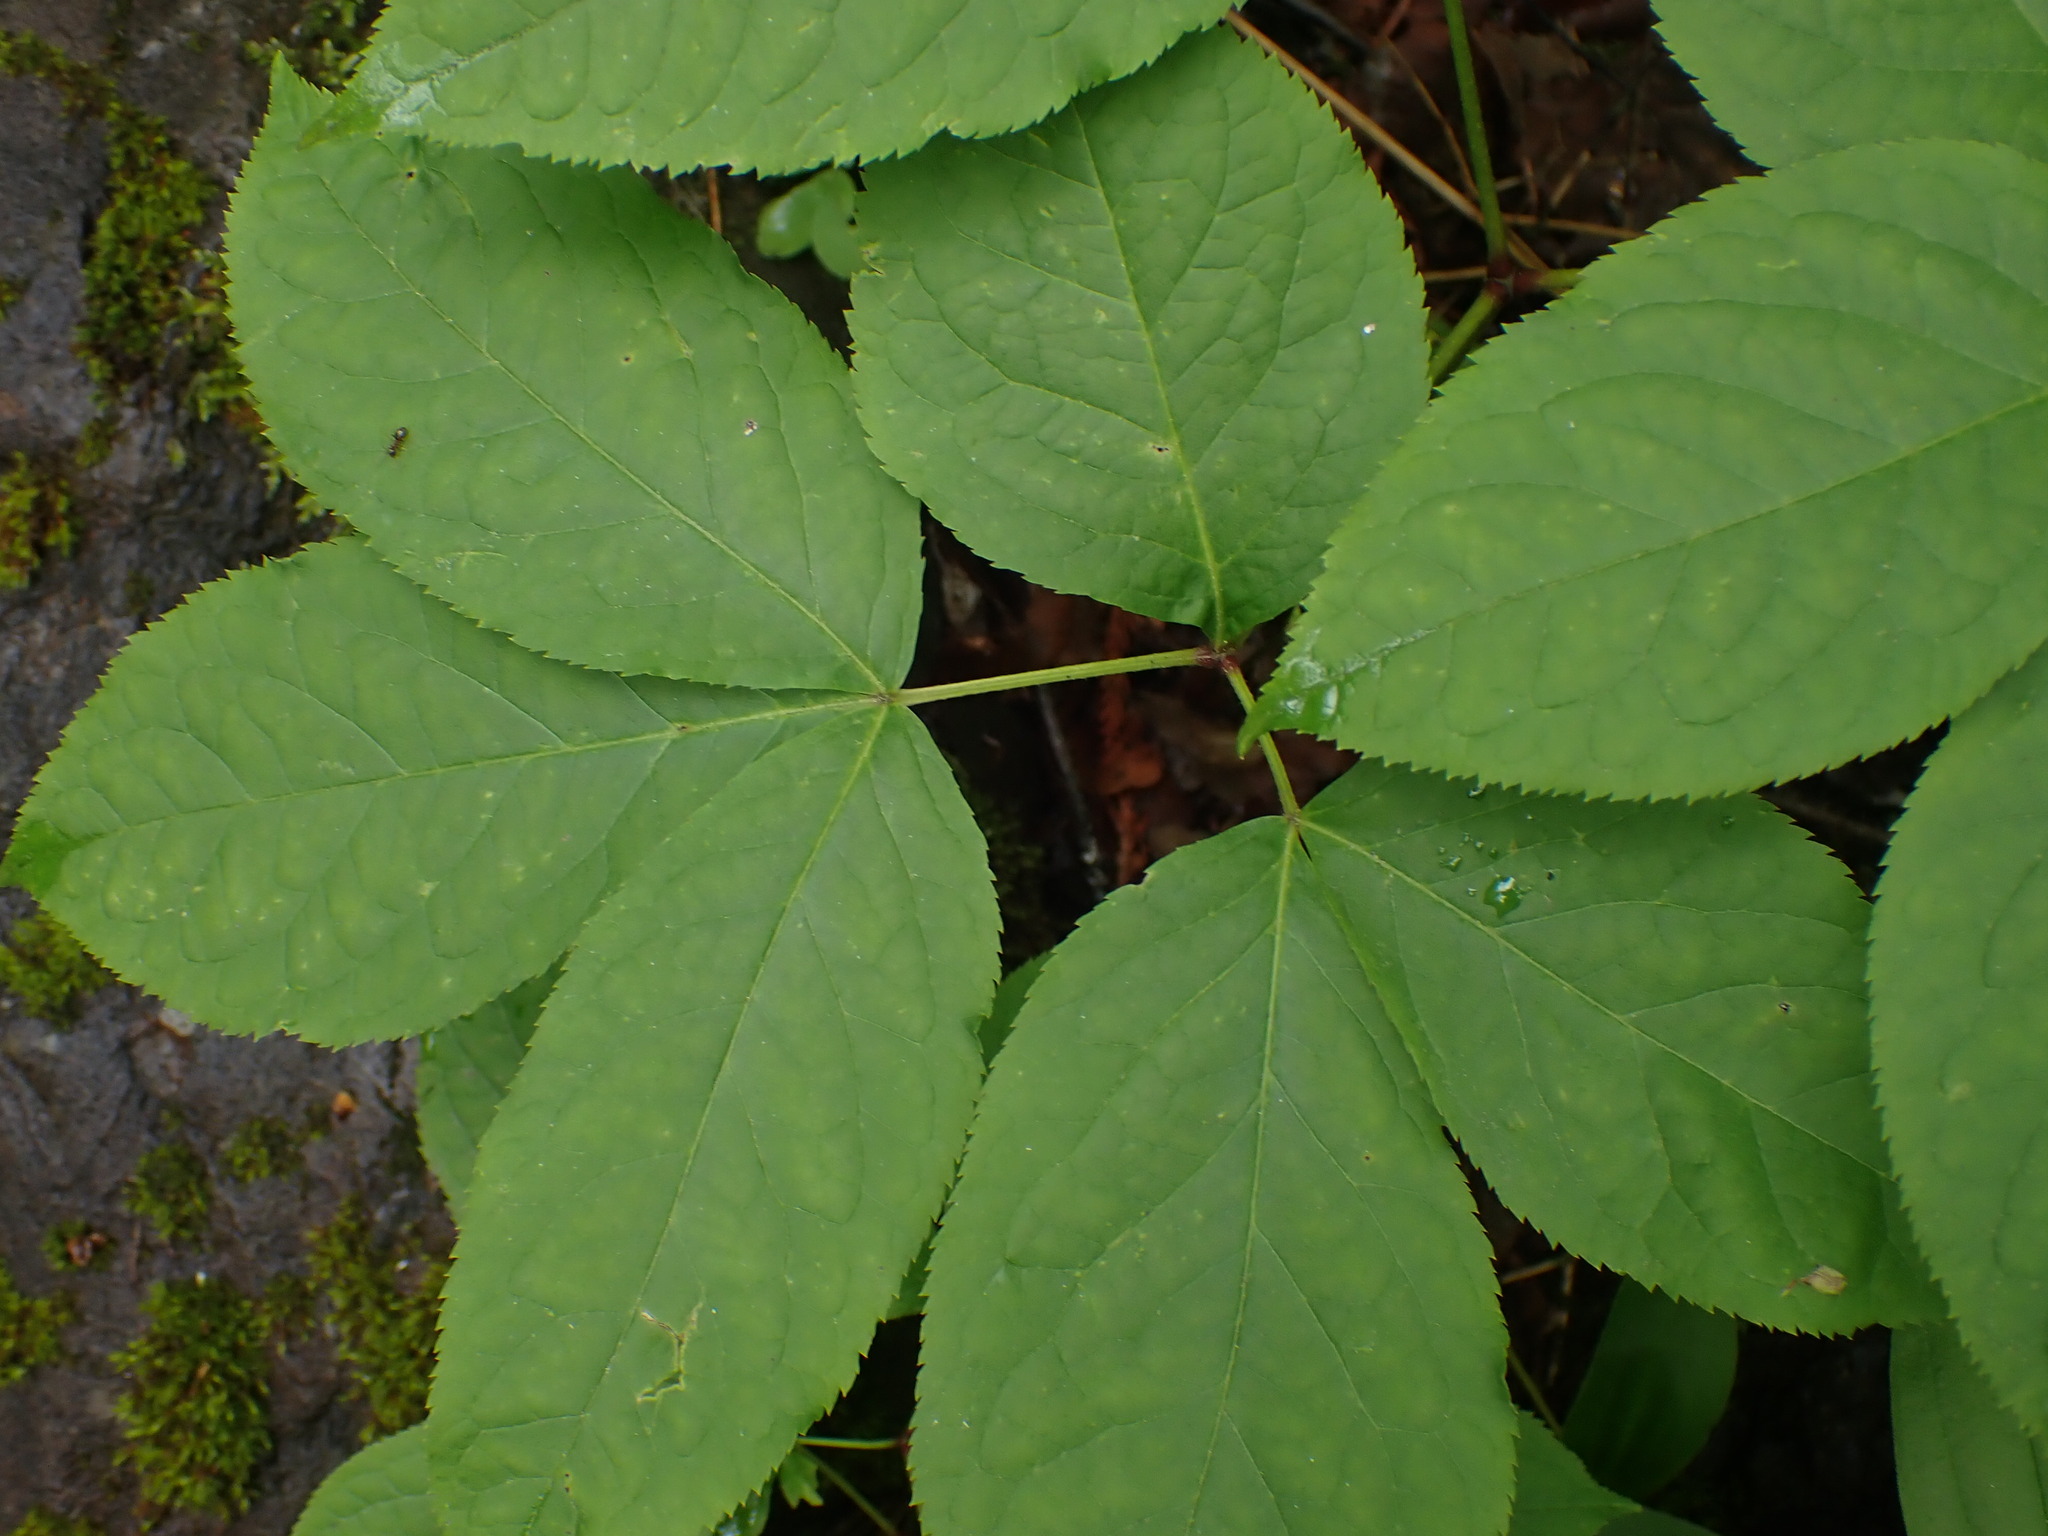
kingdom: Plantae
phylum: Tracheophyta
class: Magnoliopsida
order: Apiales
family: Araliaceae
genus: Aralia
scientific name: Aralia nudicaulis
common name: Wild sarsaparilla
